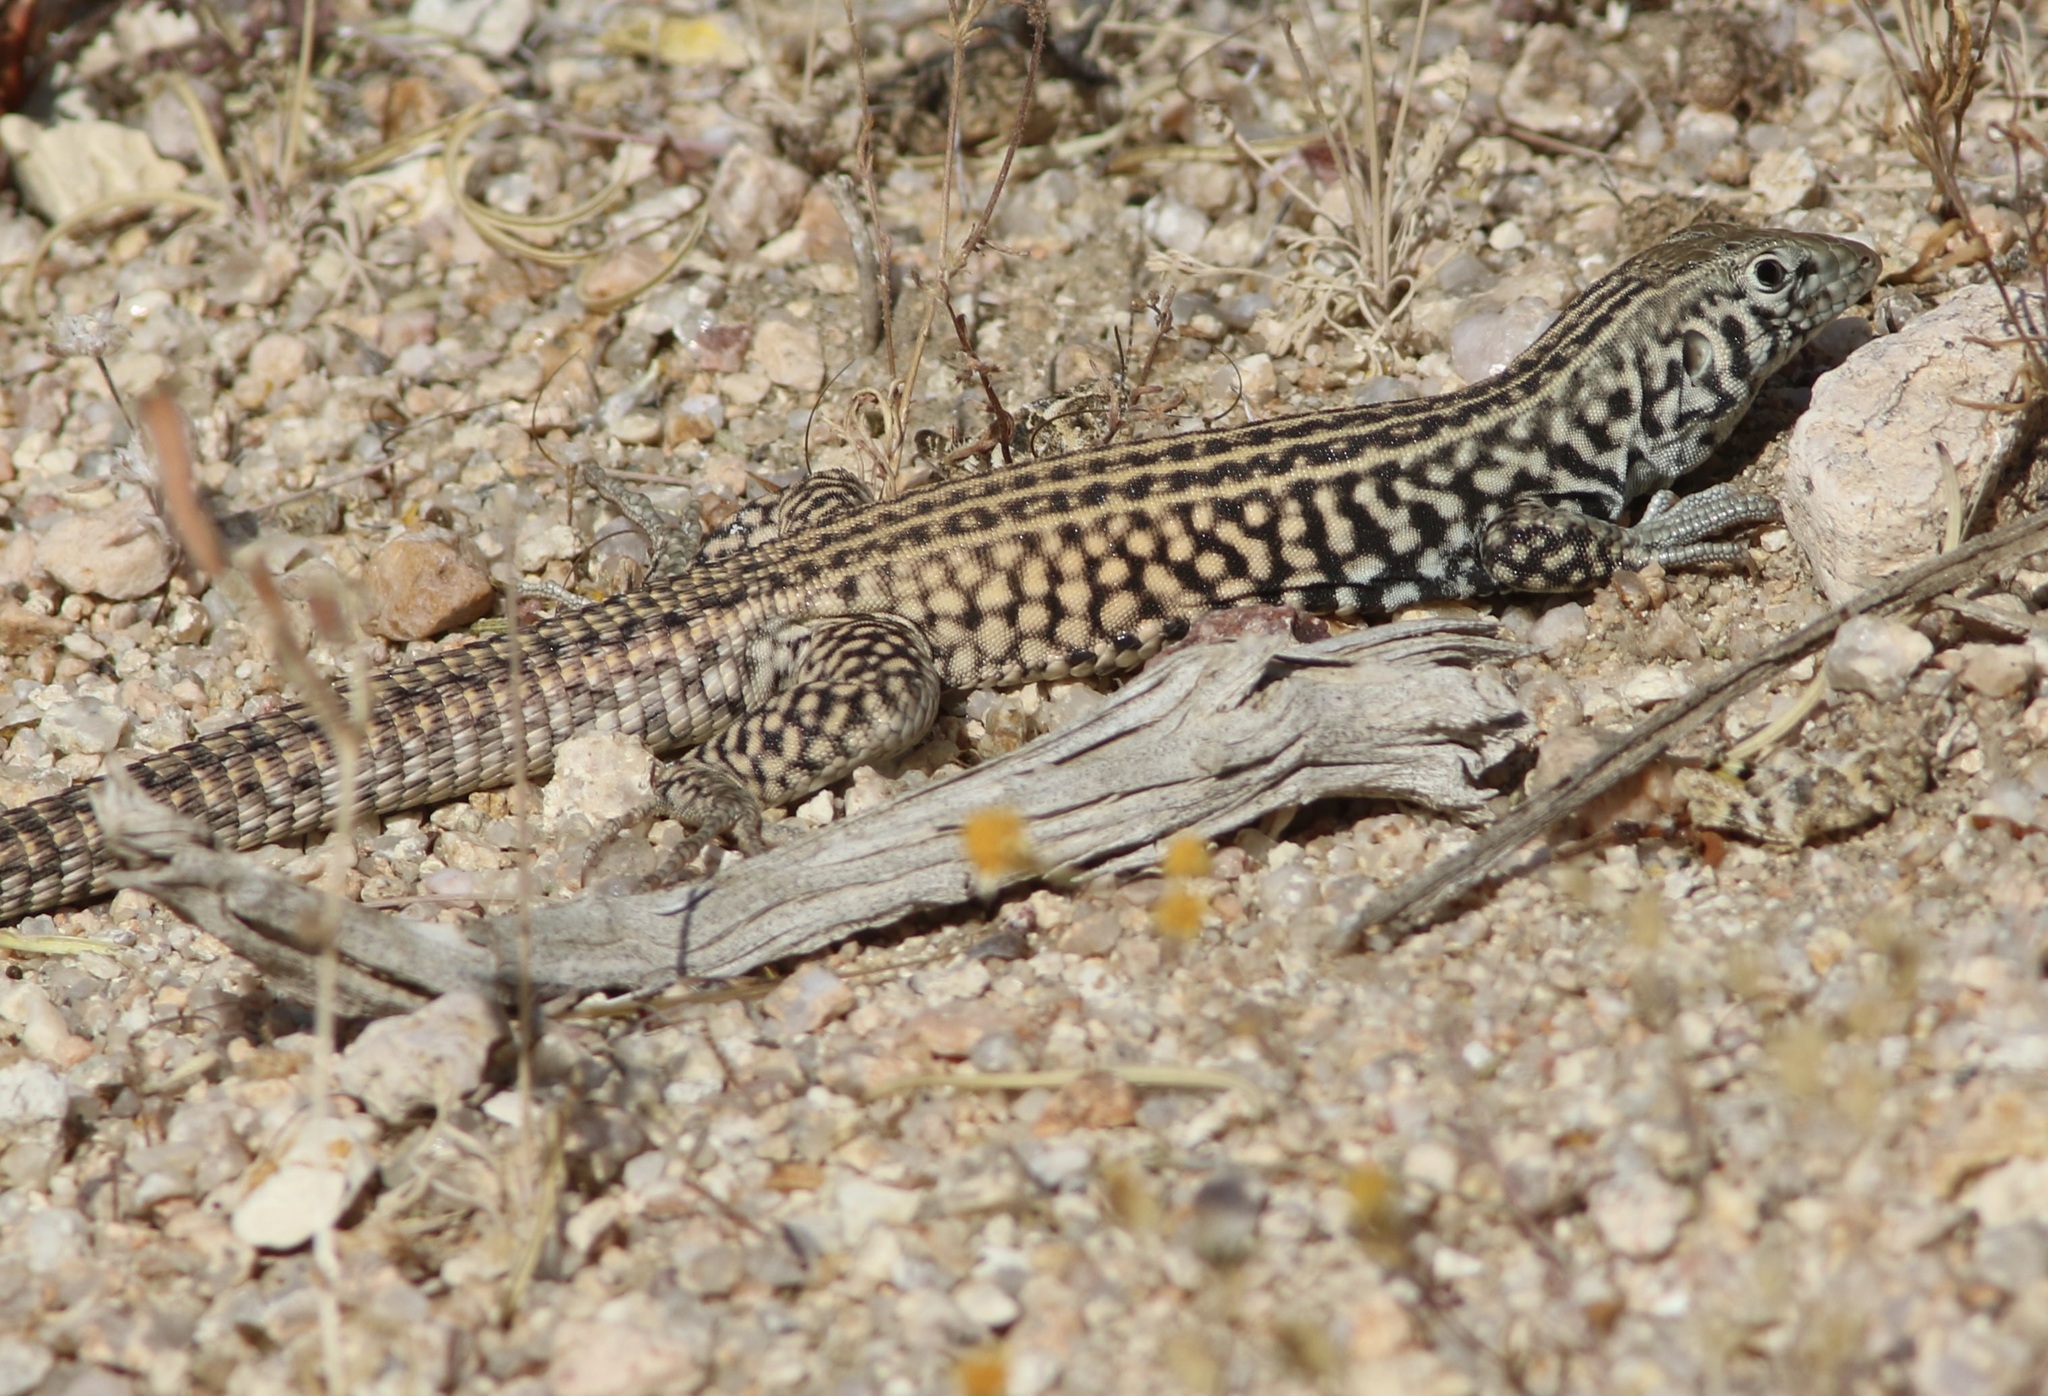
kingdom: Animalia
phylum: Chordata
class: Squamata
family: Teiidae
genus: Aspidoscelis
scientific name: Aspidoscelis tigris
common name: Tiger whiptail
